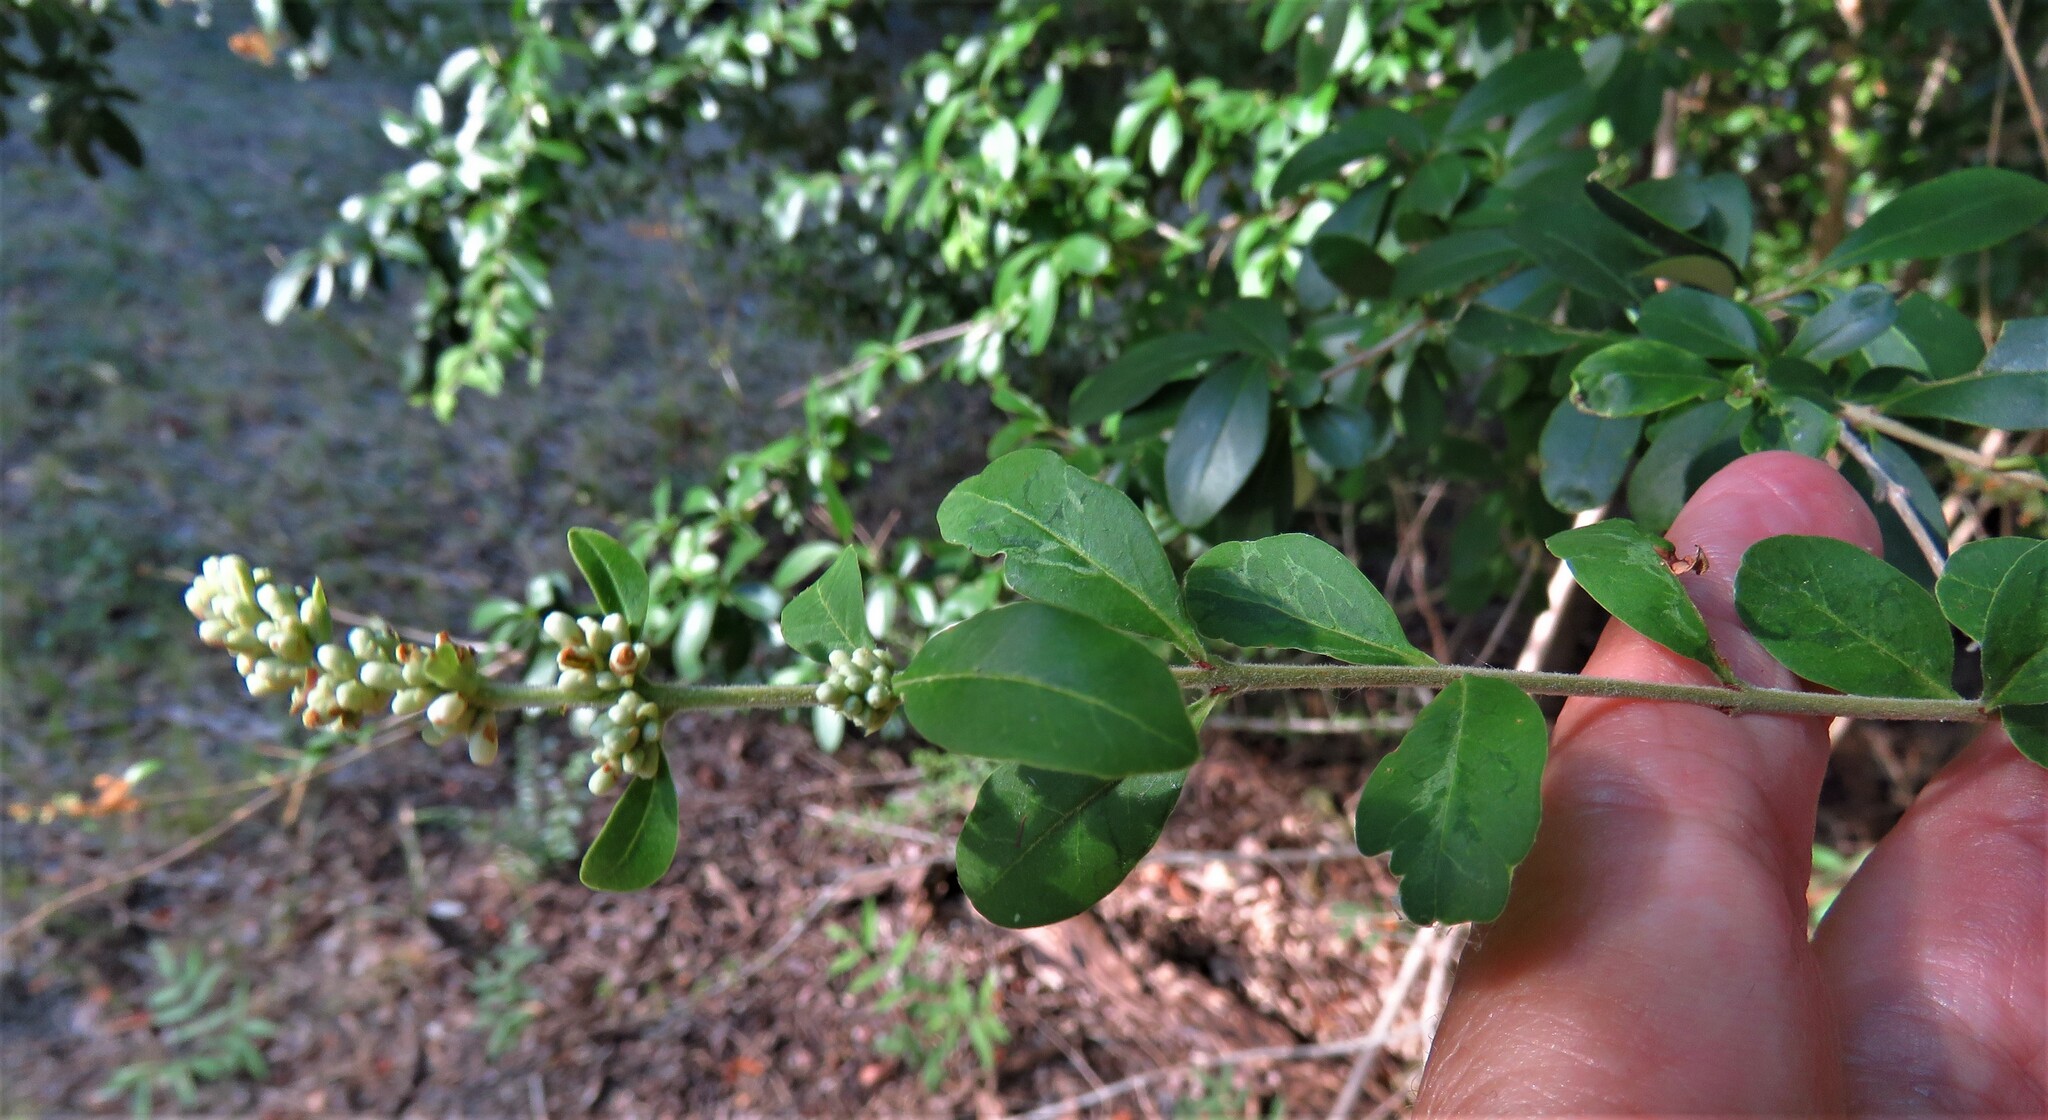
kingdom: Plantae
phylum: Tracheophyta
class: Magnoliopsida
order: Lamiales
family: Oleaceae
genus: Ligustrum
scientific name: Ligustrum quihoui
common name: Waxyleaf privet
